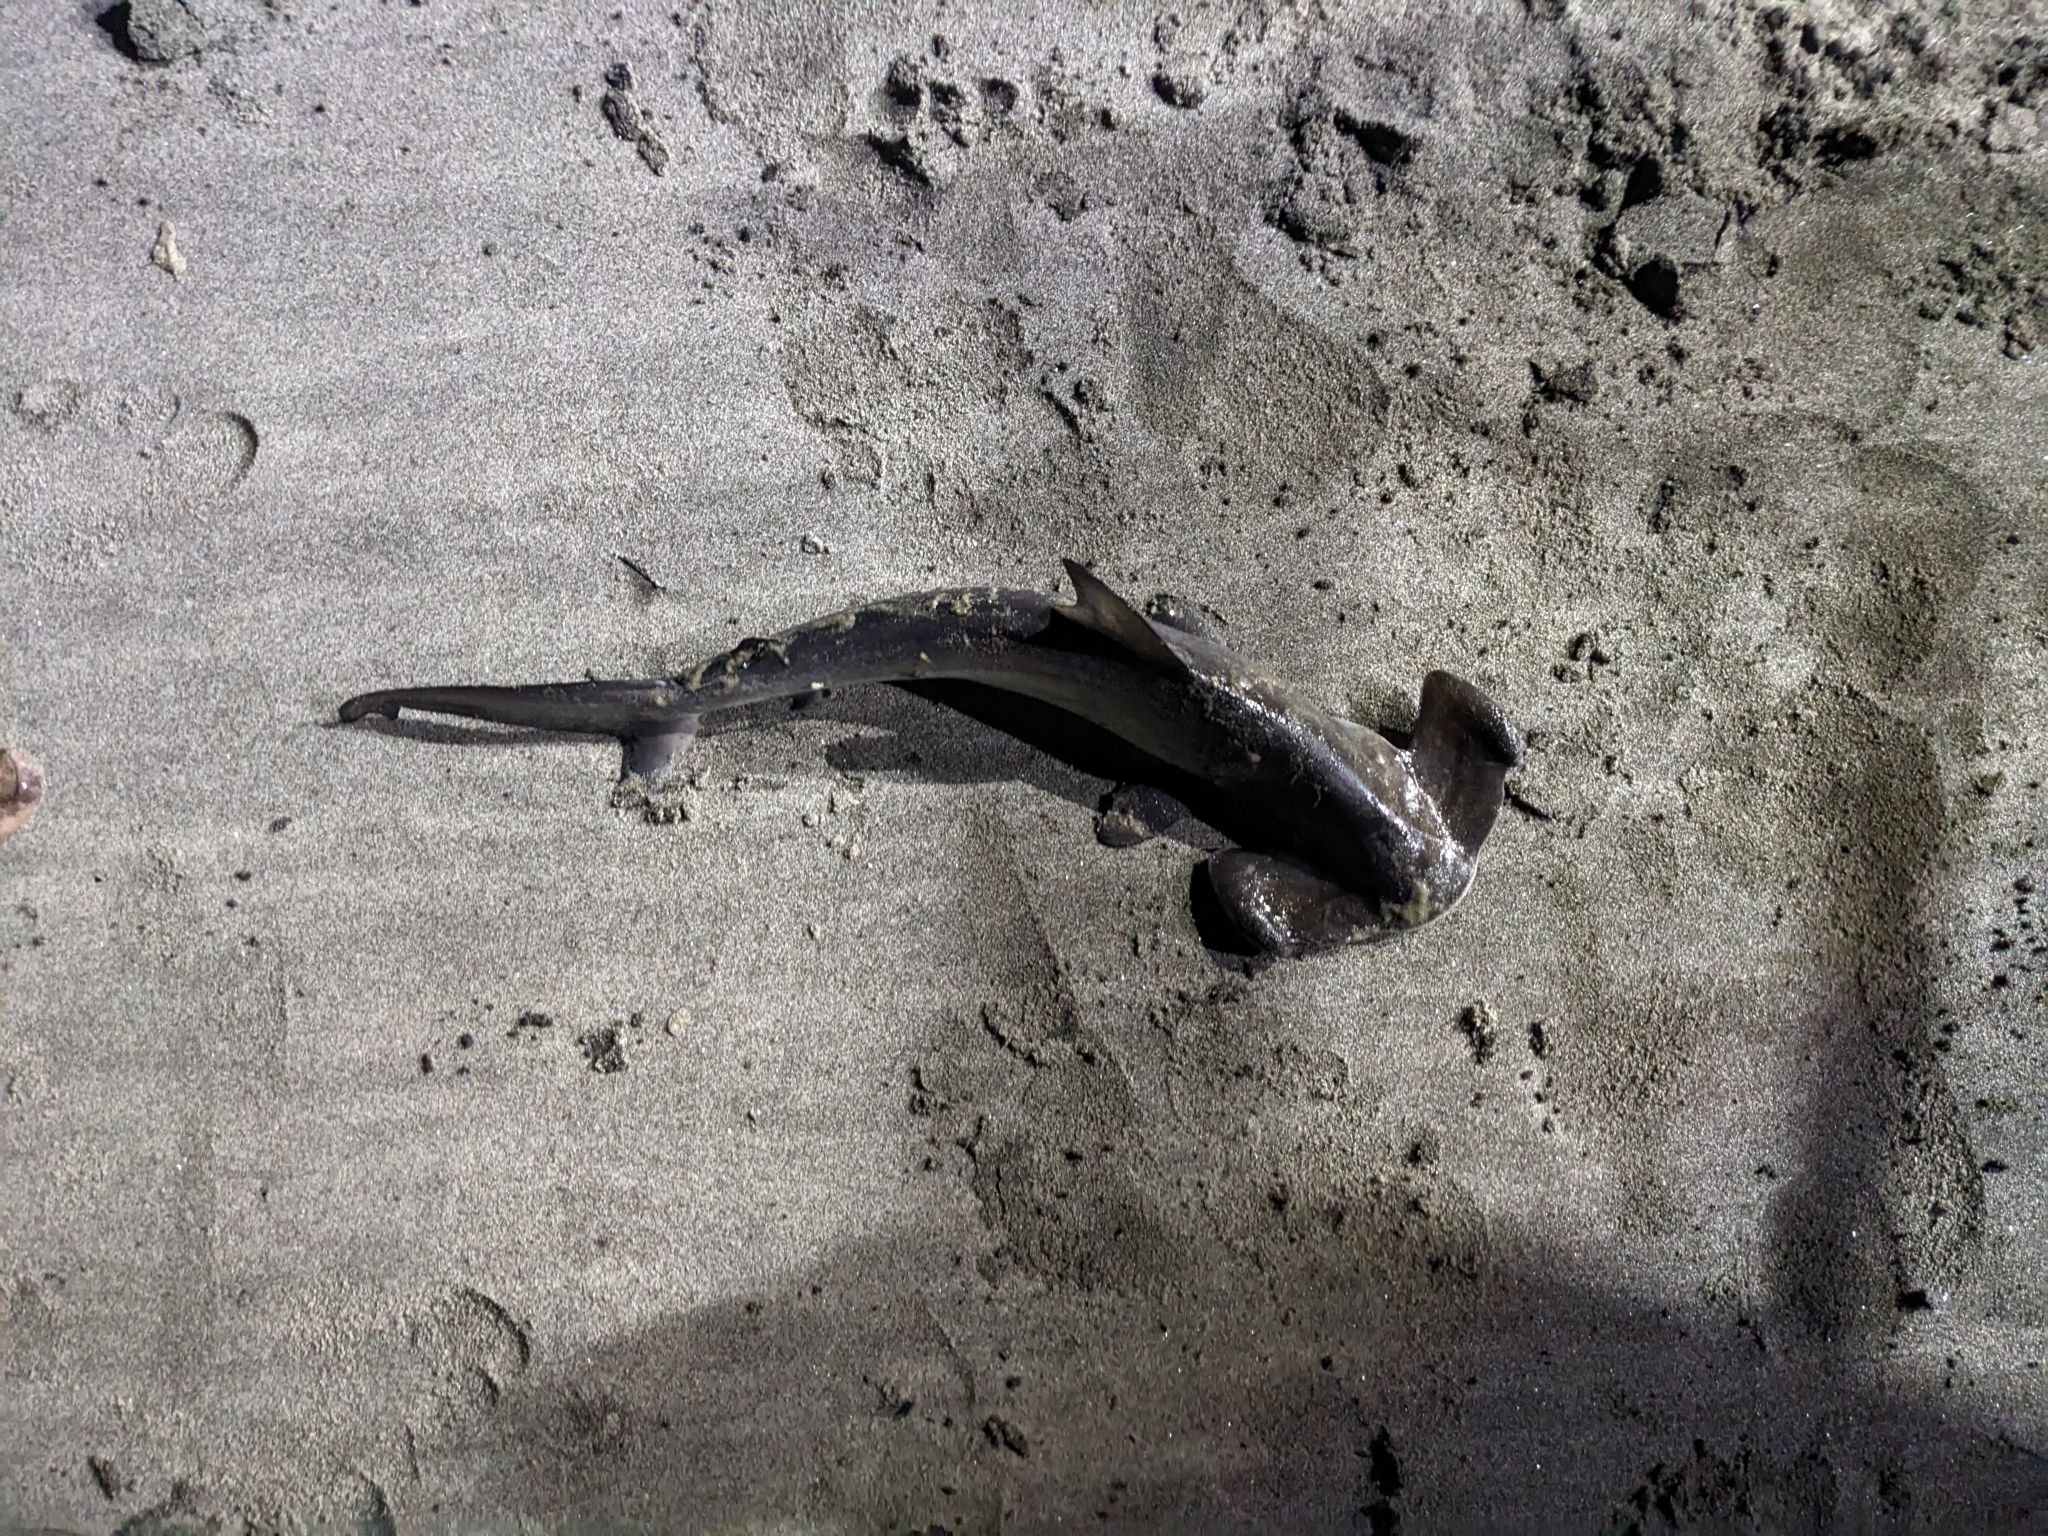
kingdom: Animalia
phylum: Chordata
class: Elasmobranchii
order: Carcharhiniformes
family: Sphyrnidae
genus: Sphyrna
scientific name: Sphyrna zygaena
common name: Smooth hammerhead
